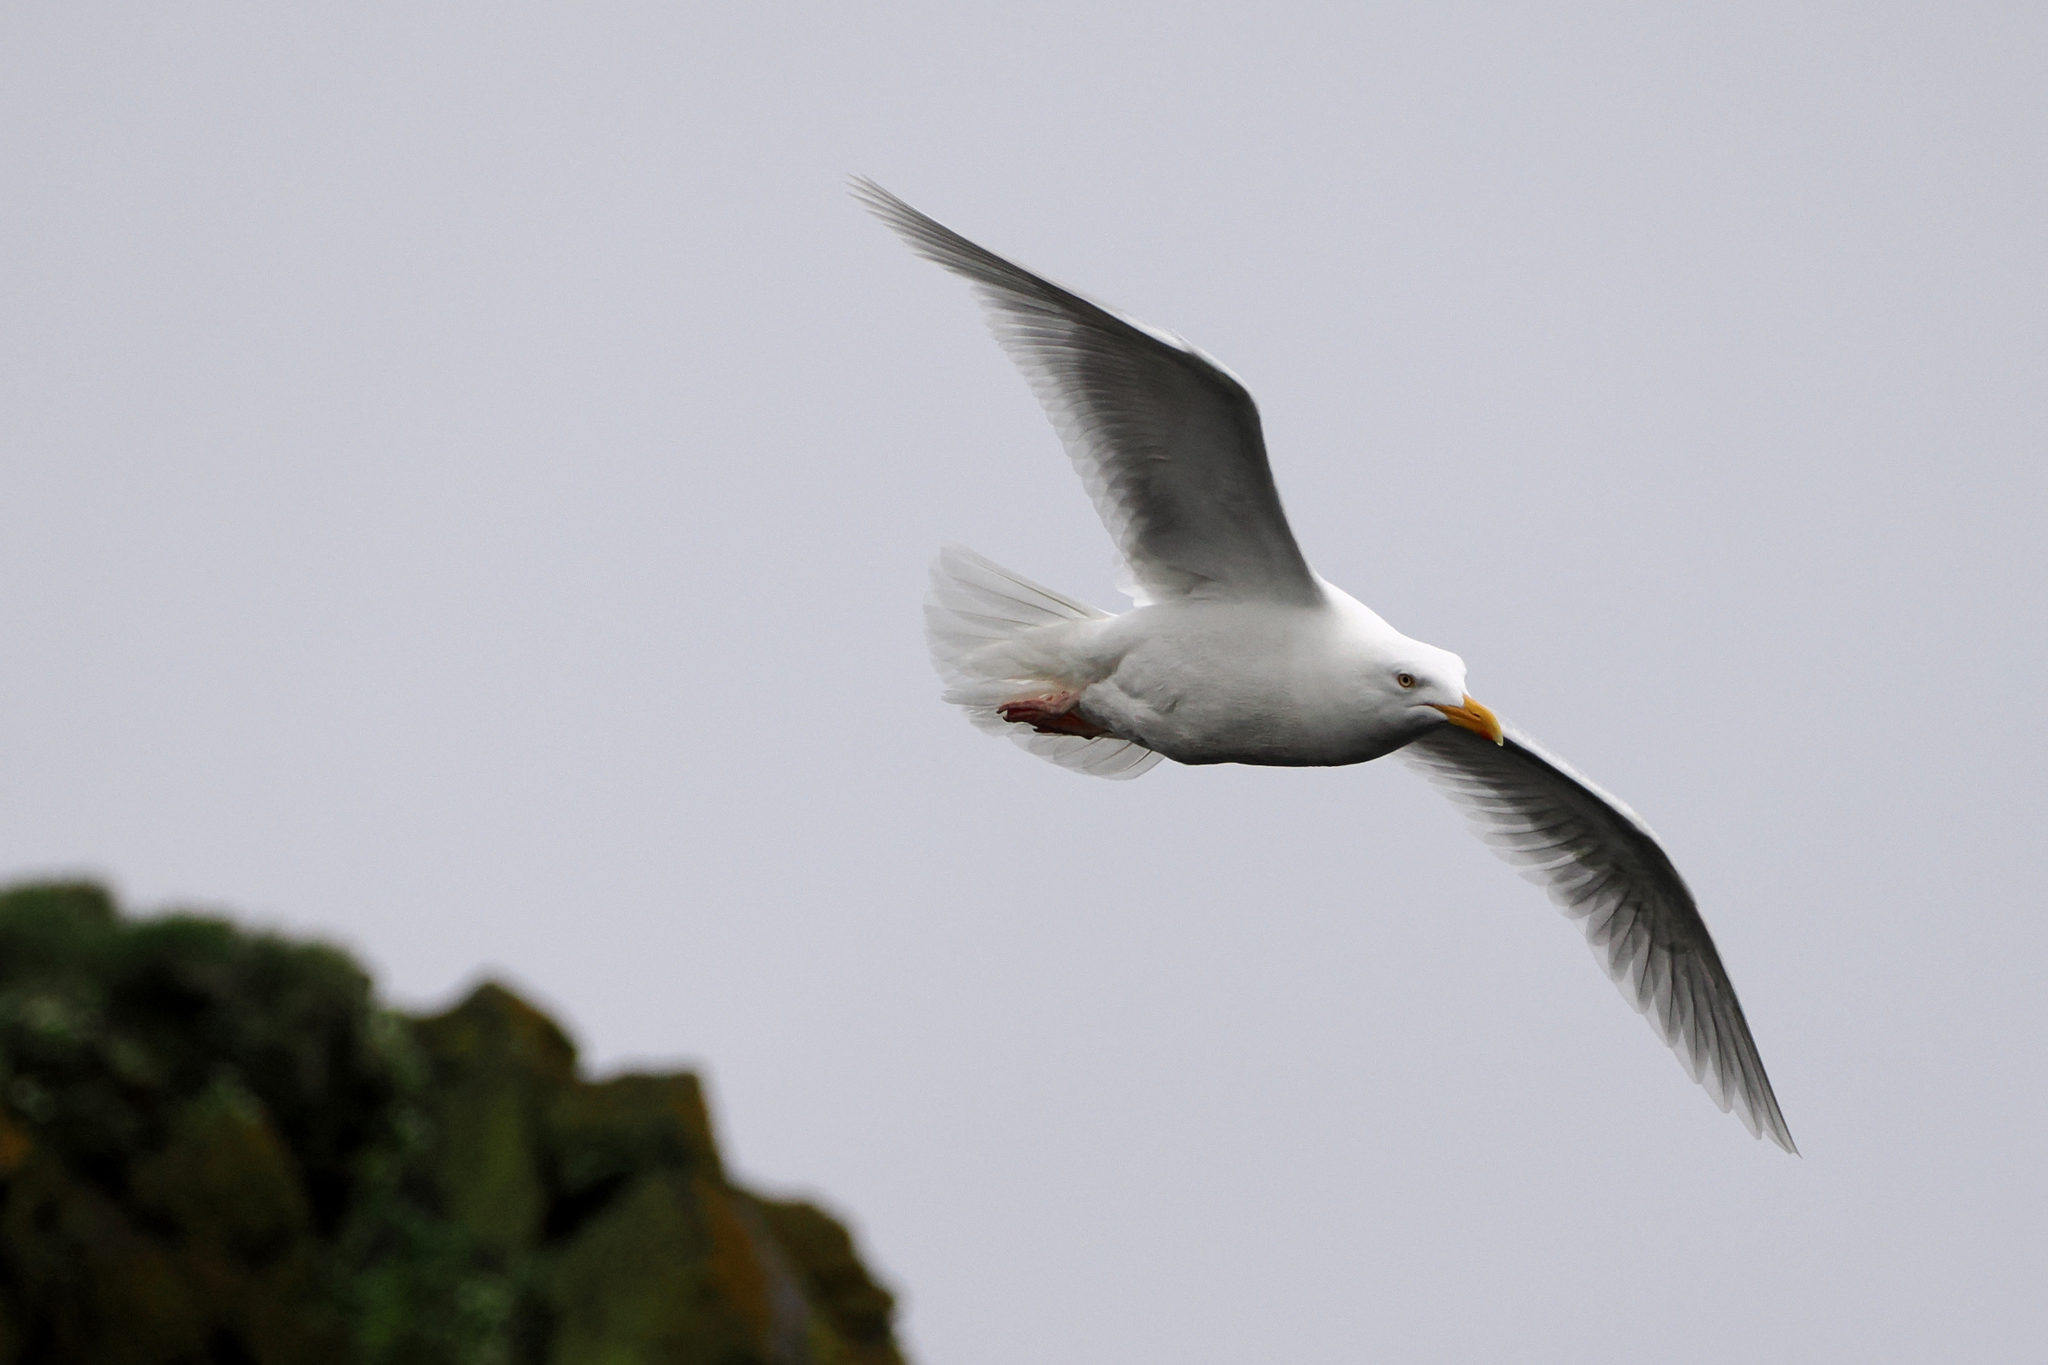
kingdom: Animalia
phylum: Chordata
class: Aves
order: Charadriiformes
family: Laridae
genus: Larus
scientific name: Larus hyperboreus
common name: Glaucous gull
